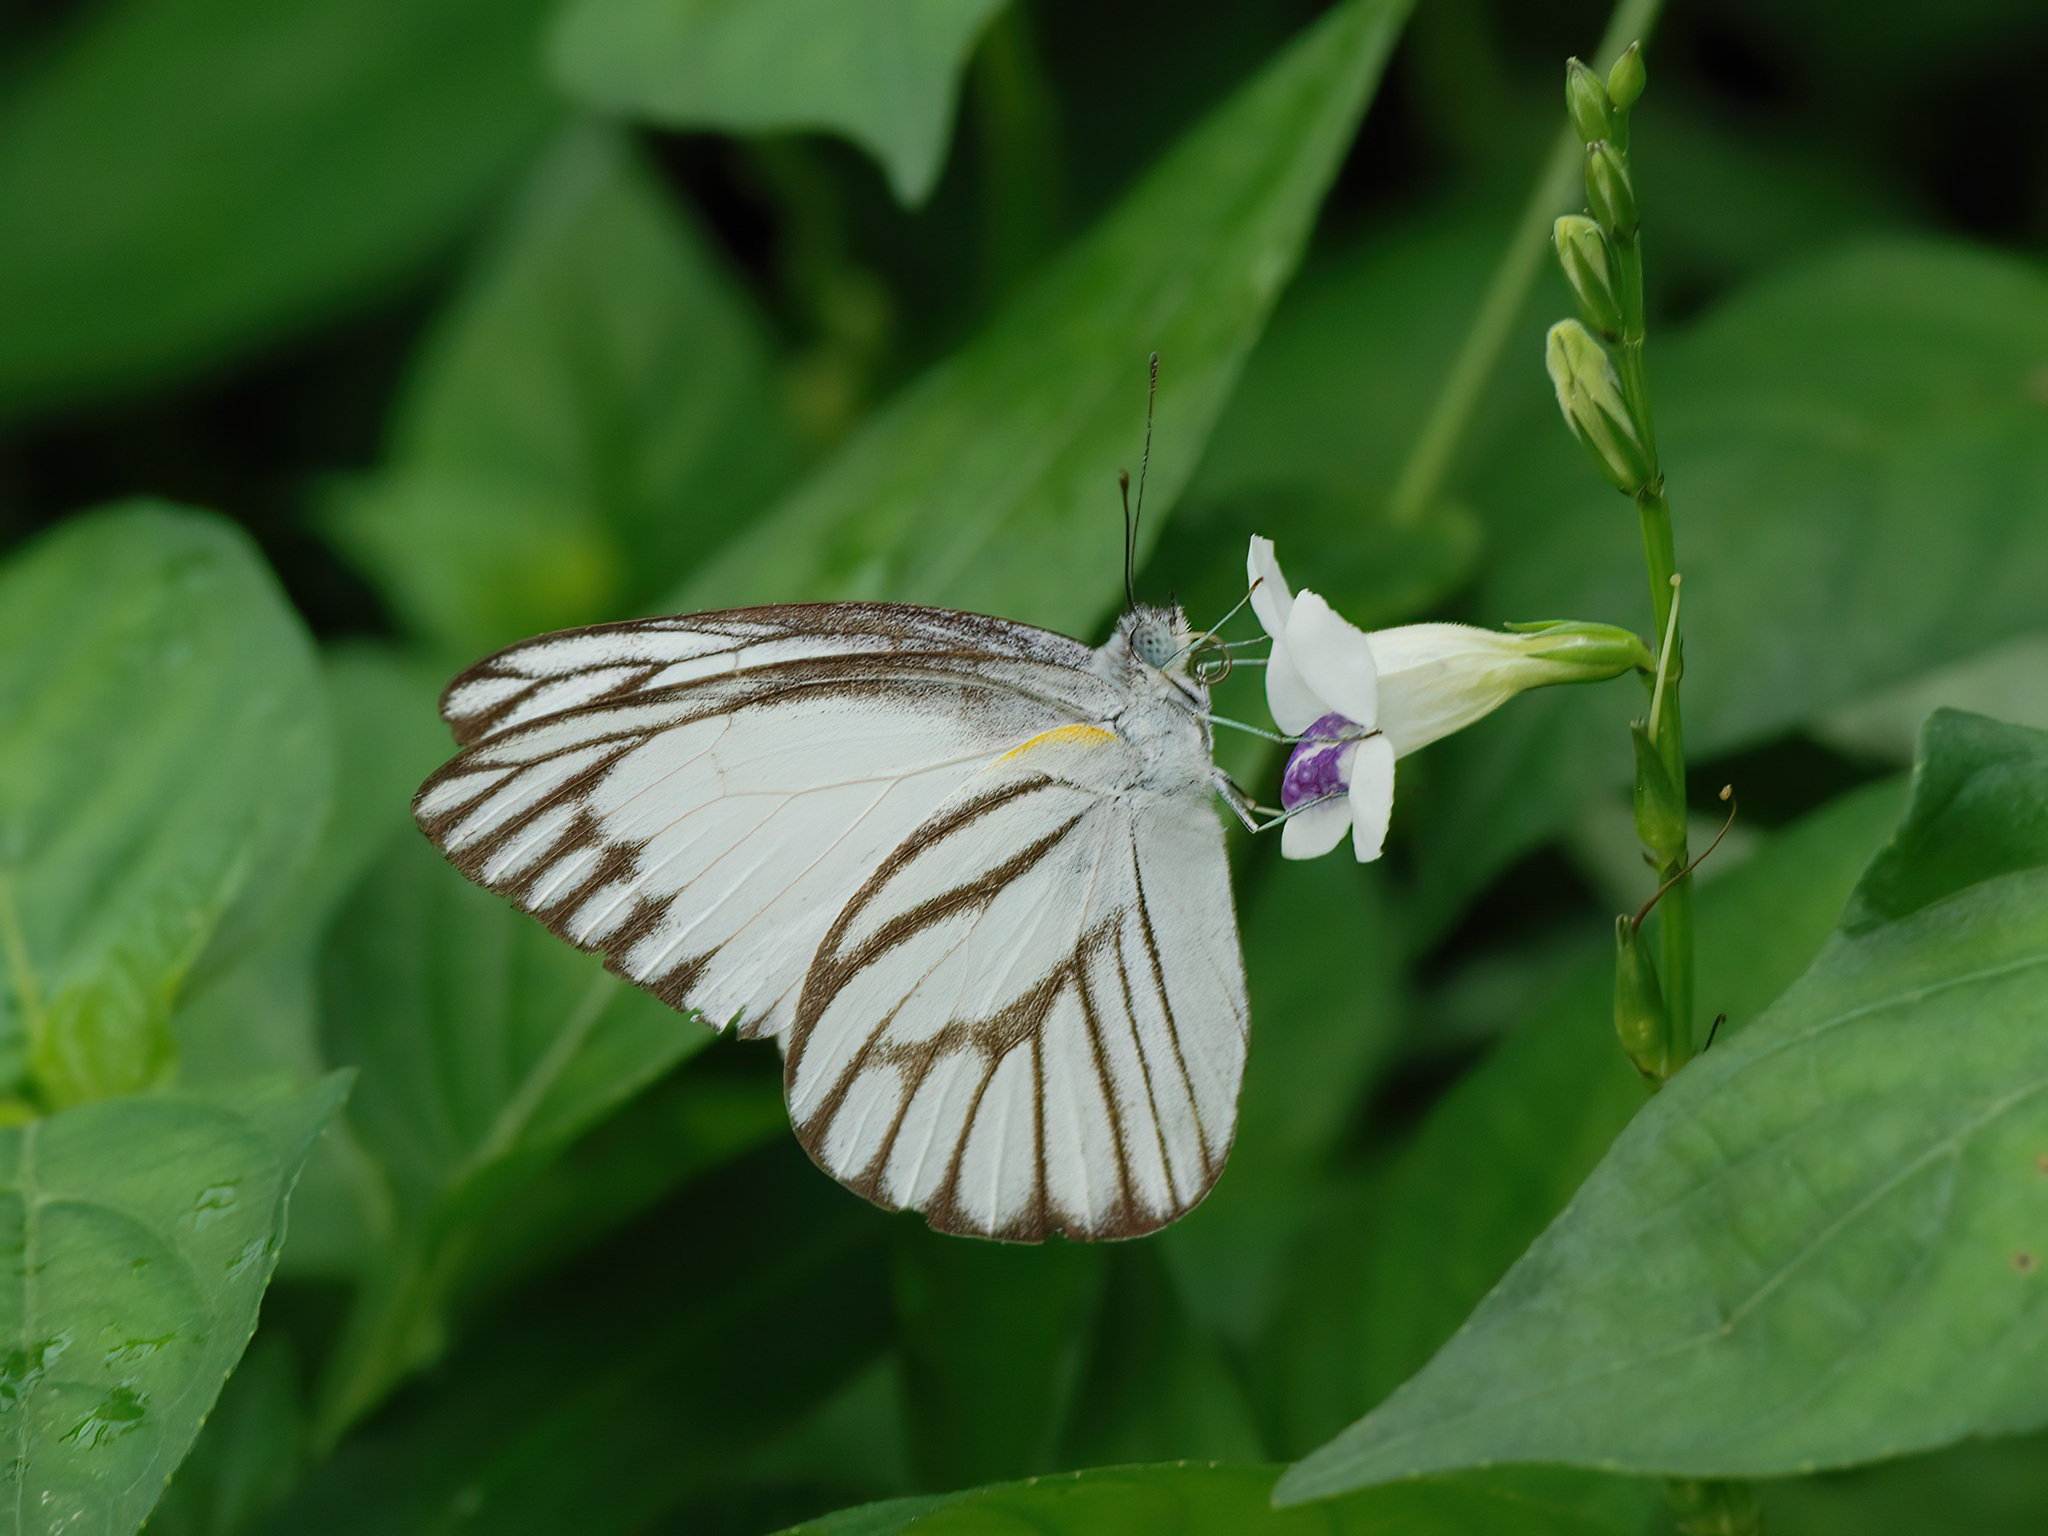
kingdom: Animalia
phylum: Arthropoda
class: Insecta
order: Lepidoptera
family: Pieridae
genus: Appias
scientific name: Appias libythea
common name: Striped albatross
